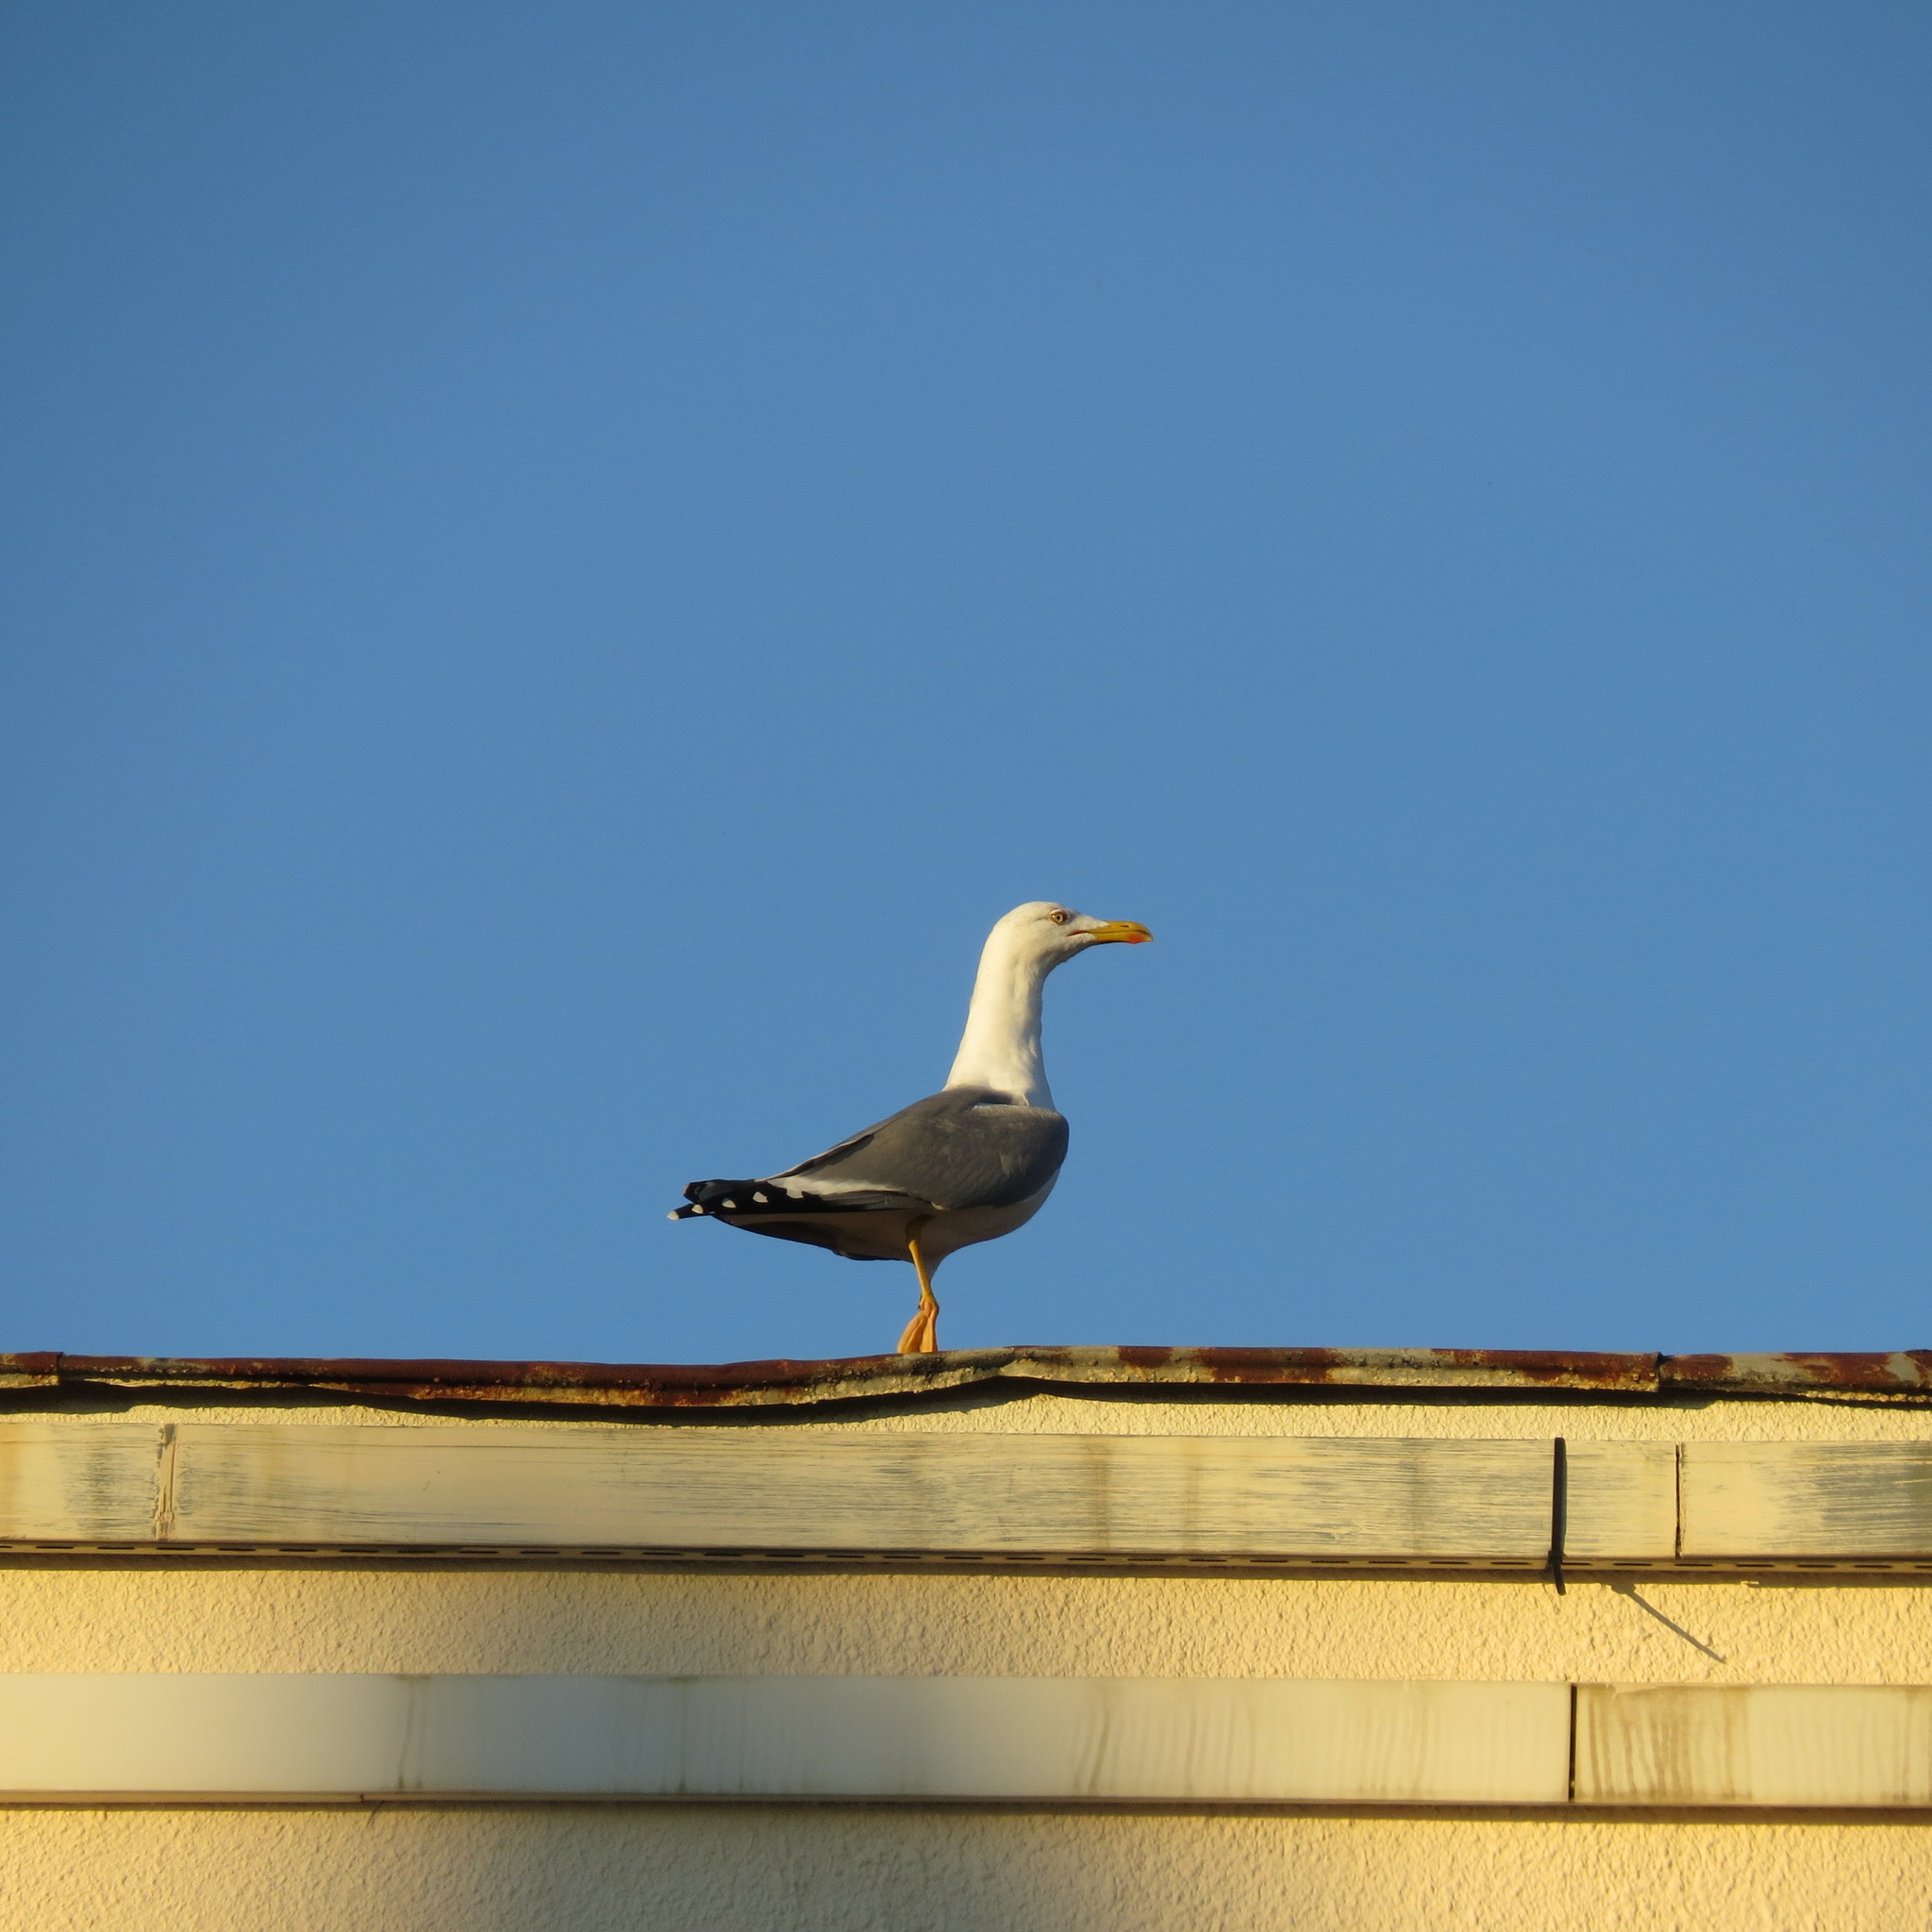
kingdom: Animalia
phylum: Chordata
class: Aves
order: Charadriiformes
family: Laridae
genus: Larus
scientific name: Larus michahellis
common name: Yellow-legged gull
